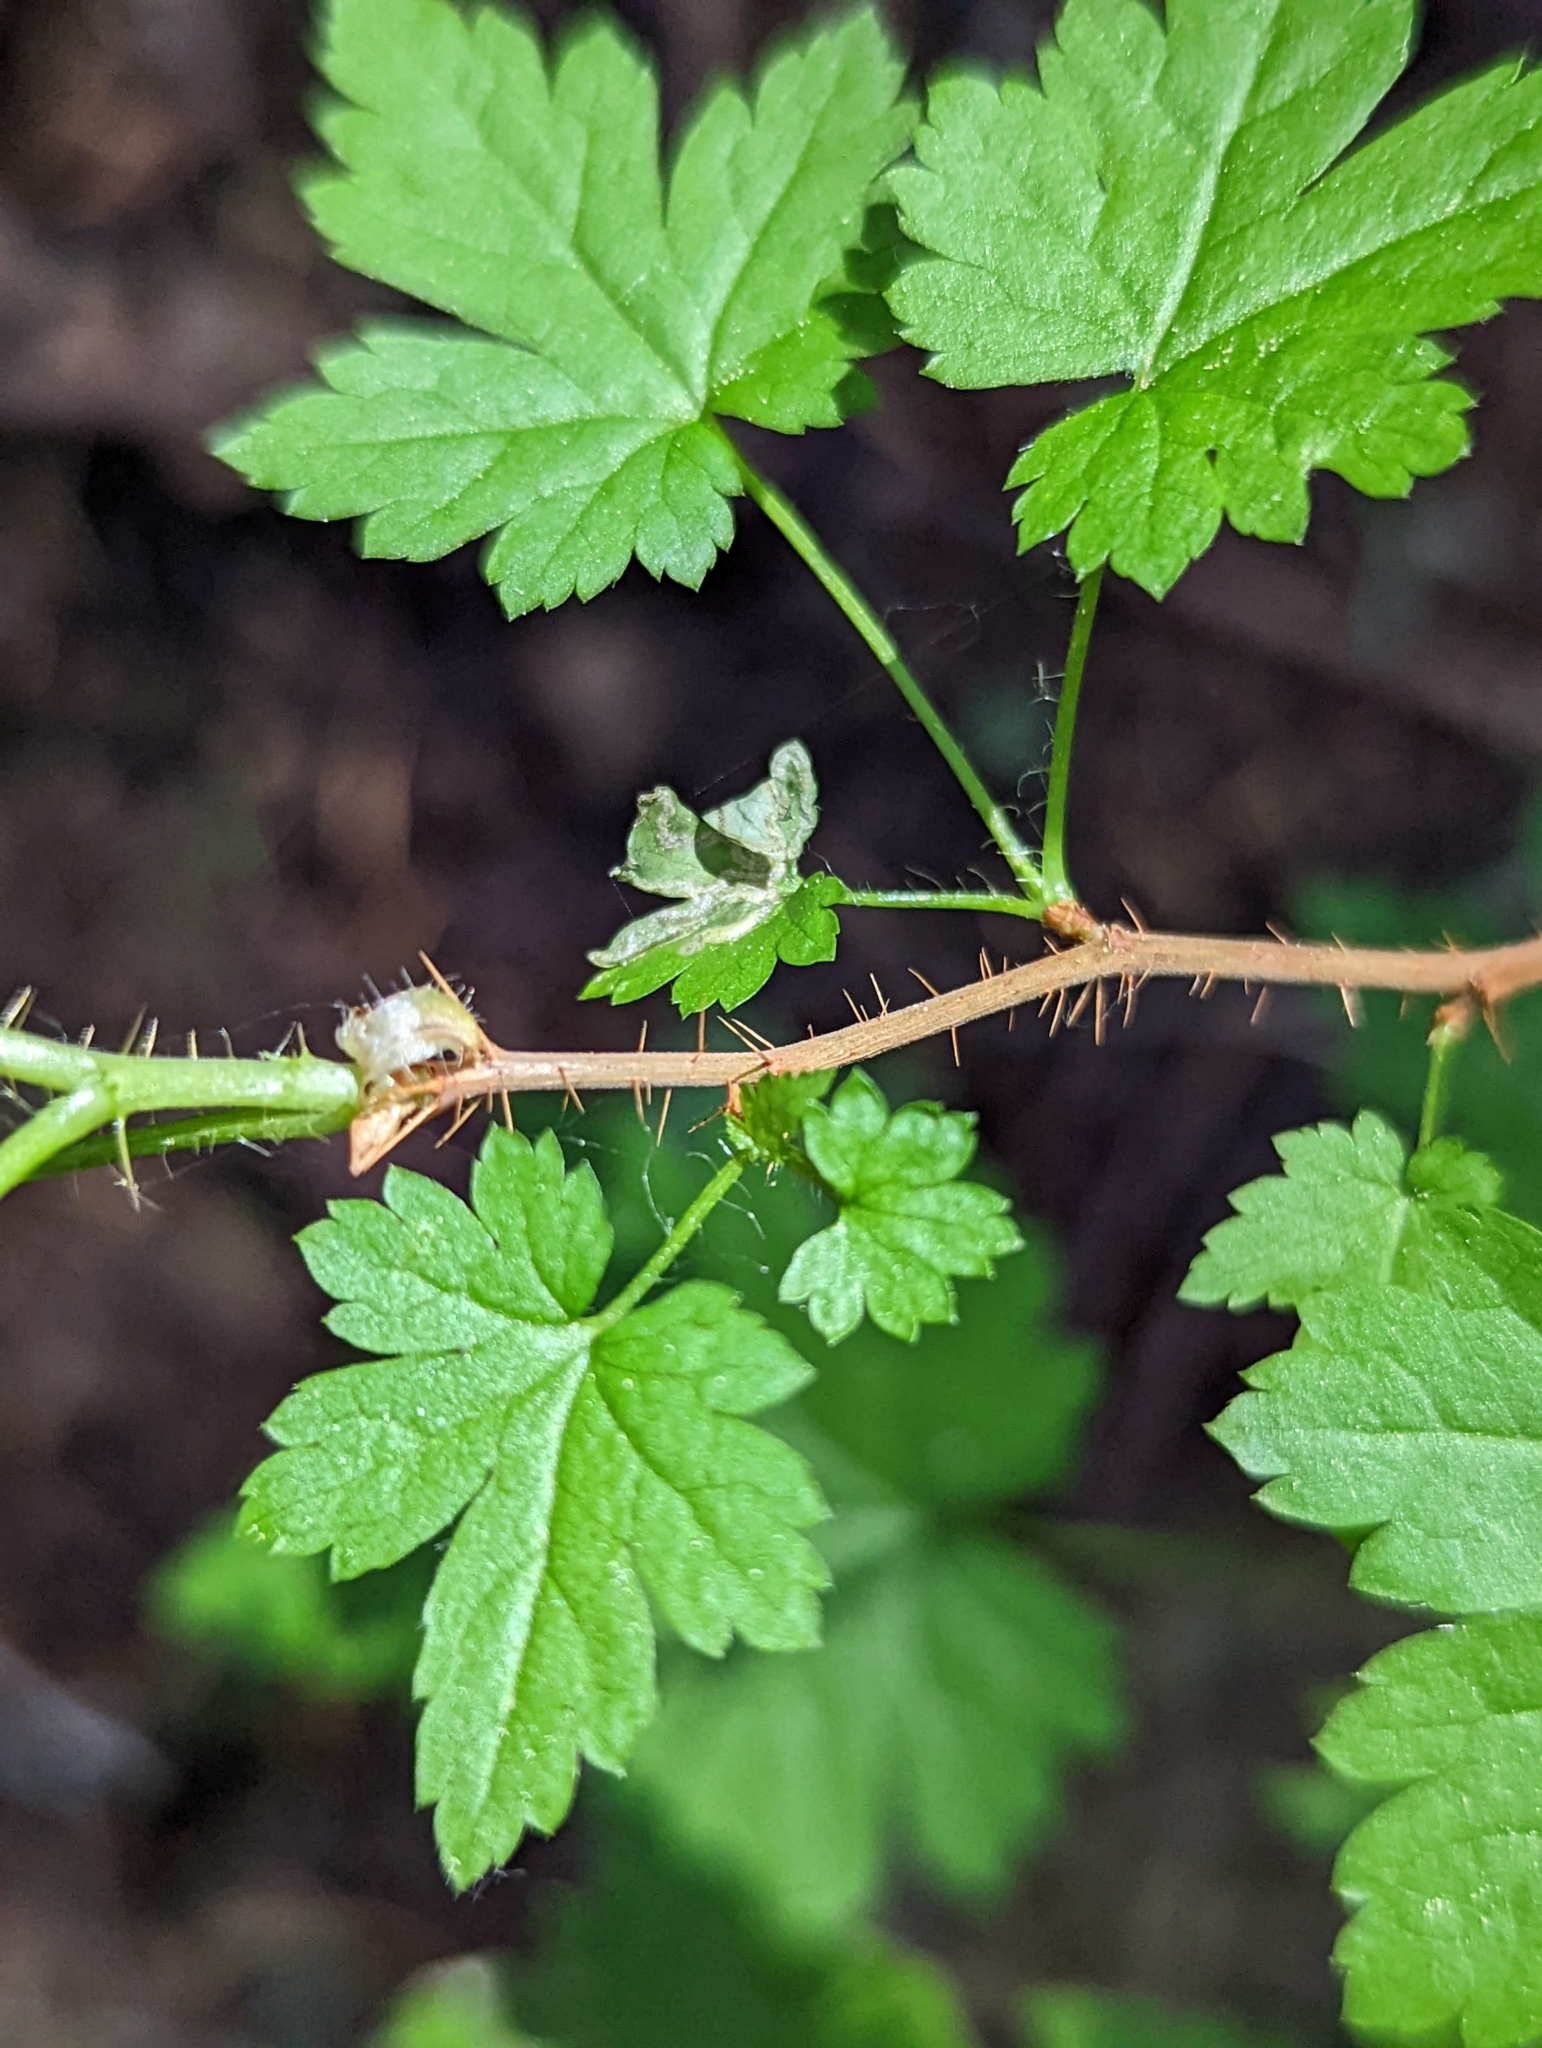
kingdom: Plantae
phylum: Tracheophyta
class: Magnoliopsida
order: Saxifragales
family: Grossulariaceae
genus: Ribes
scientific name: Ribes lacustre
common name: Black gooseberry
